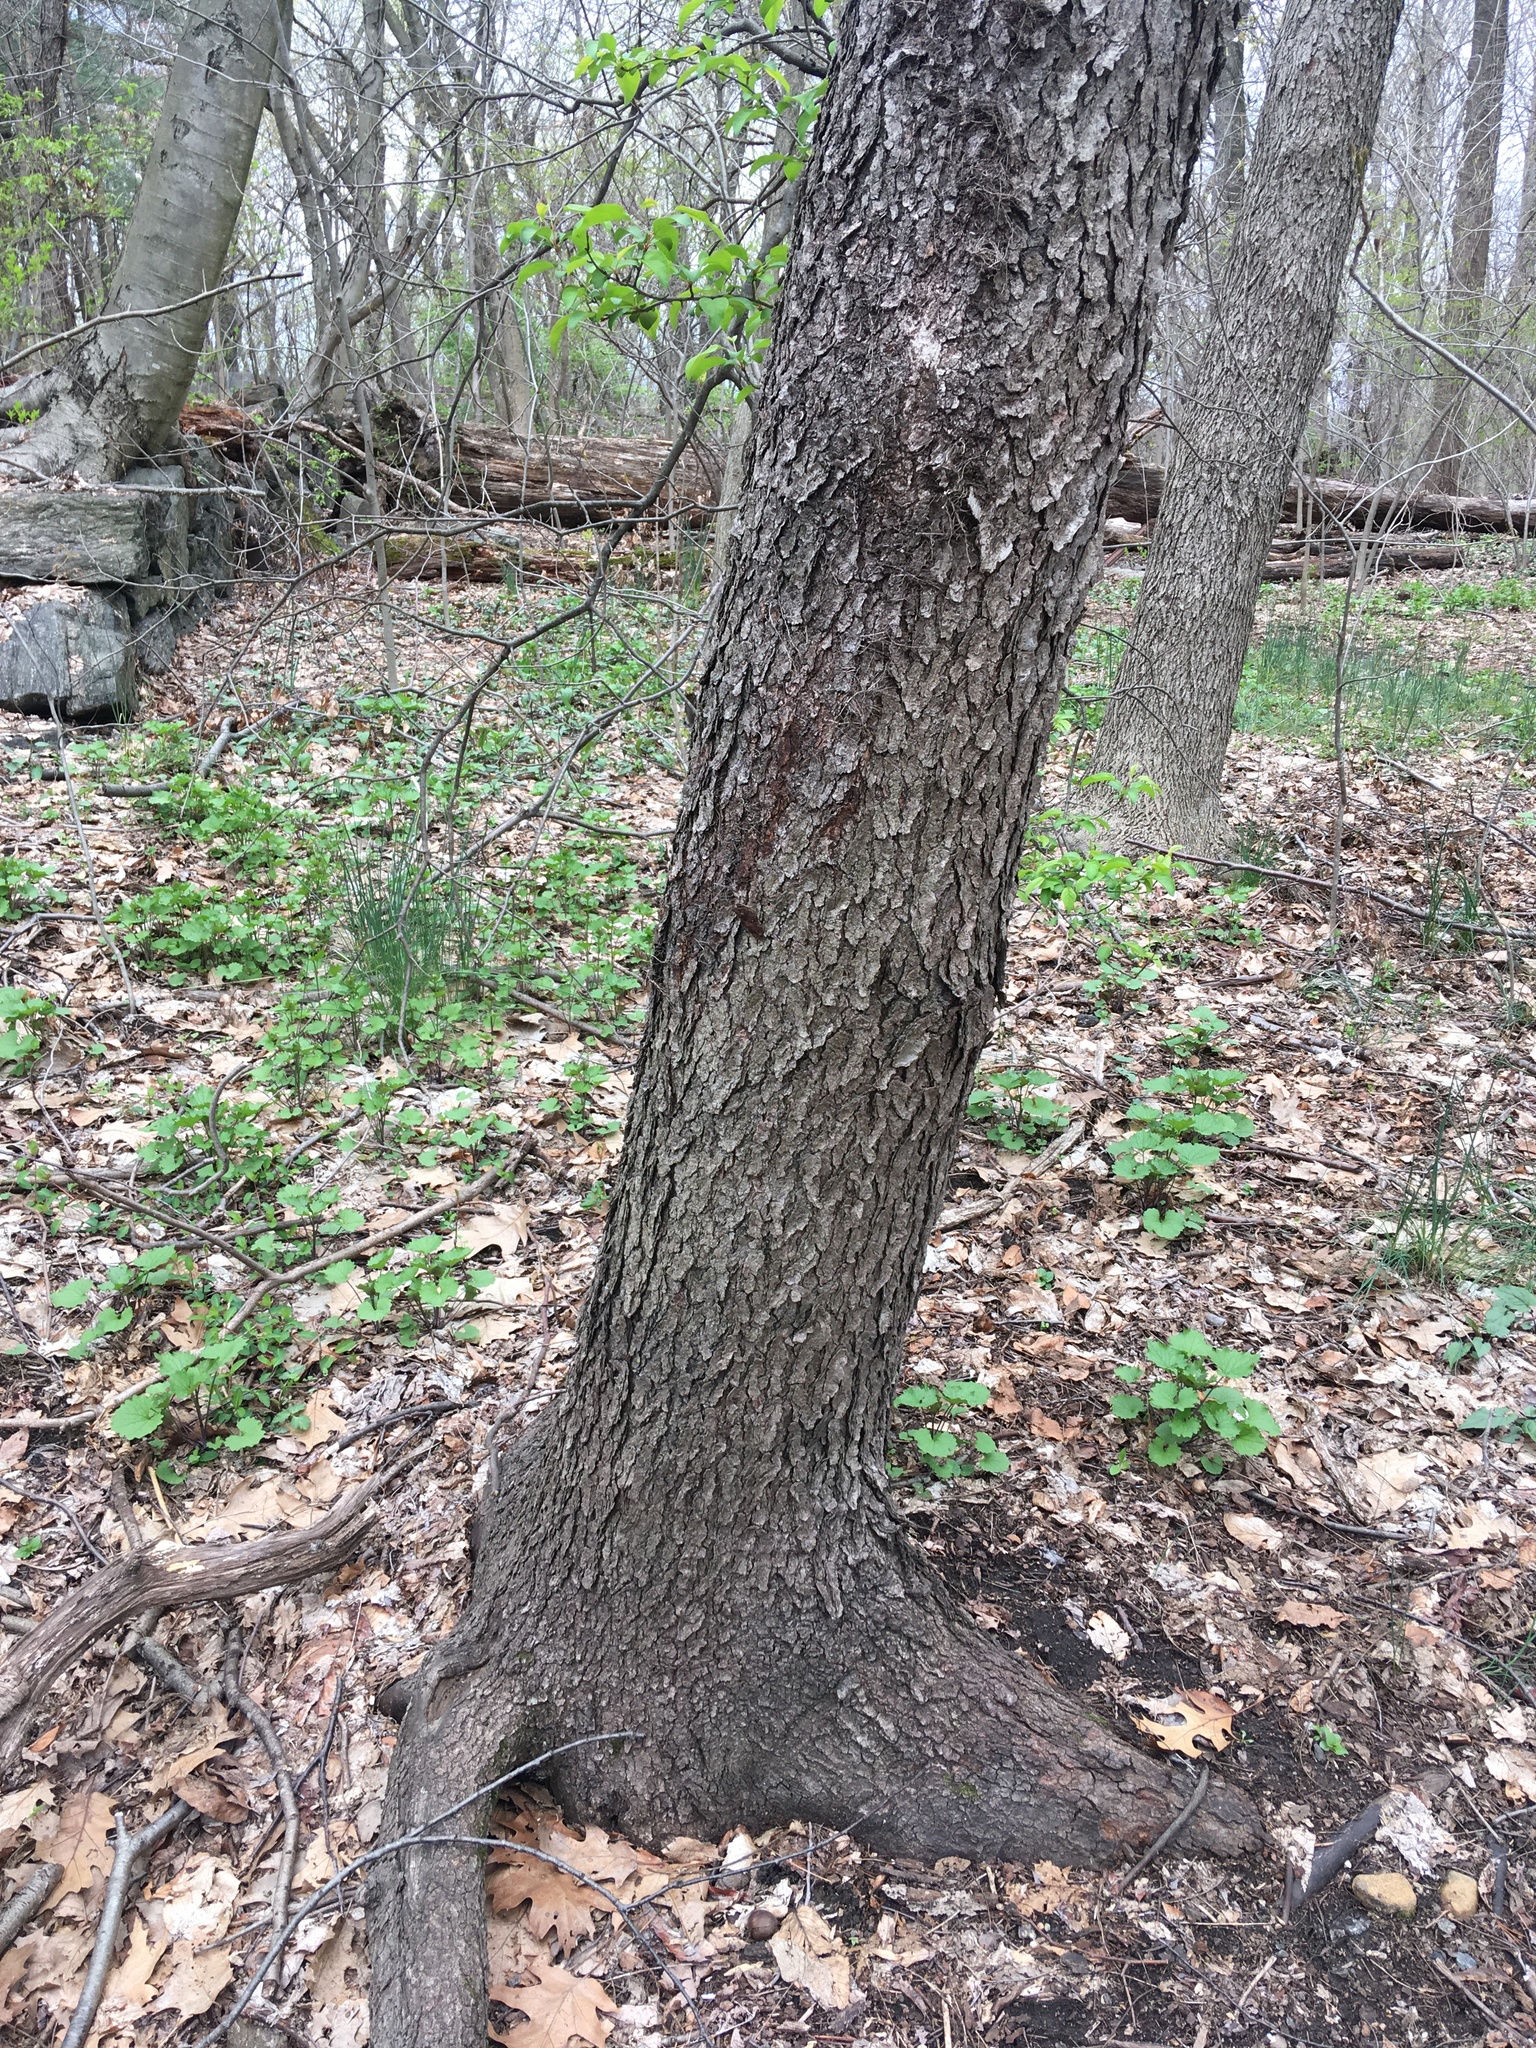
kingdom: Plantae
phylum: Tracheophyta
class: Magnoliopsida
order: Rosales
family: Rosaceae
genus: Prunus
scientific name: Prunus serotina
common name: Black cherry
